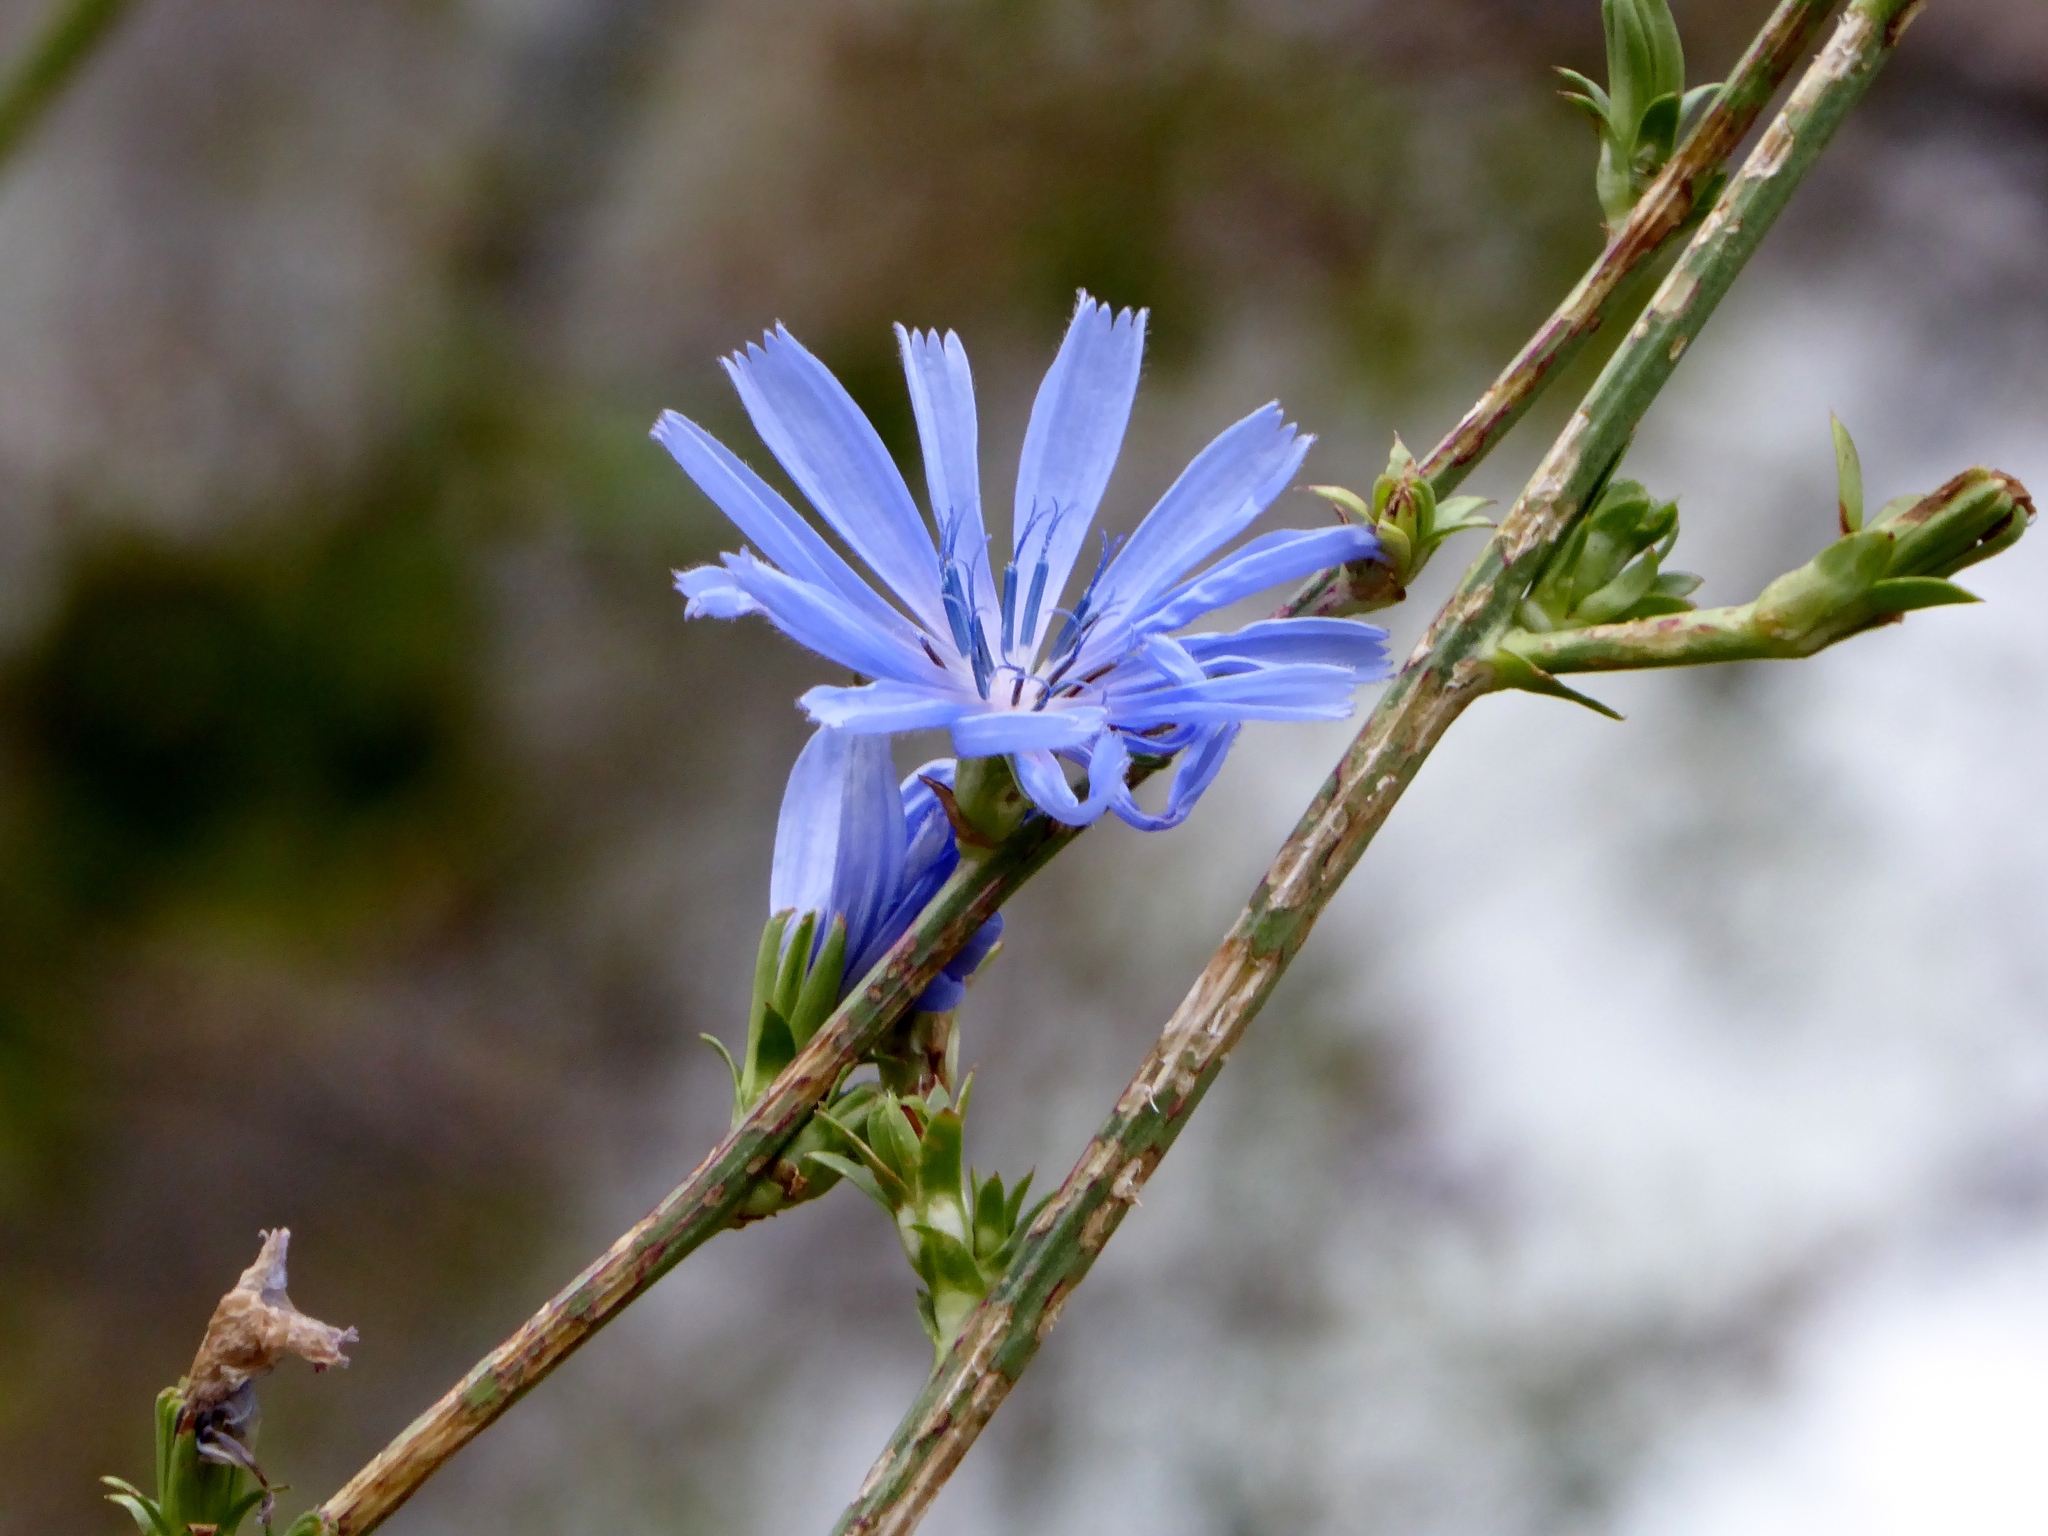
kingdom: Plantae
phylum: Tracheophyta
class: Magnoliopsida
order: Asterales
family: Asteraceae
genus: Cichorium
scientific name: Cichorium intybus
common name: Chicory
